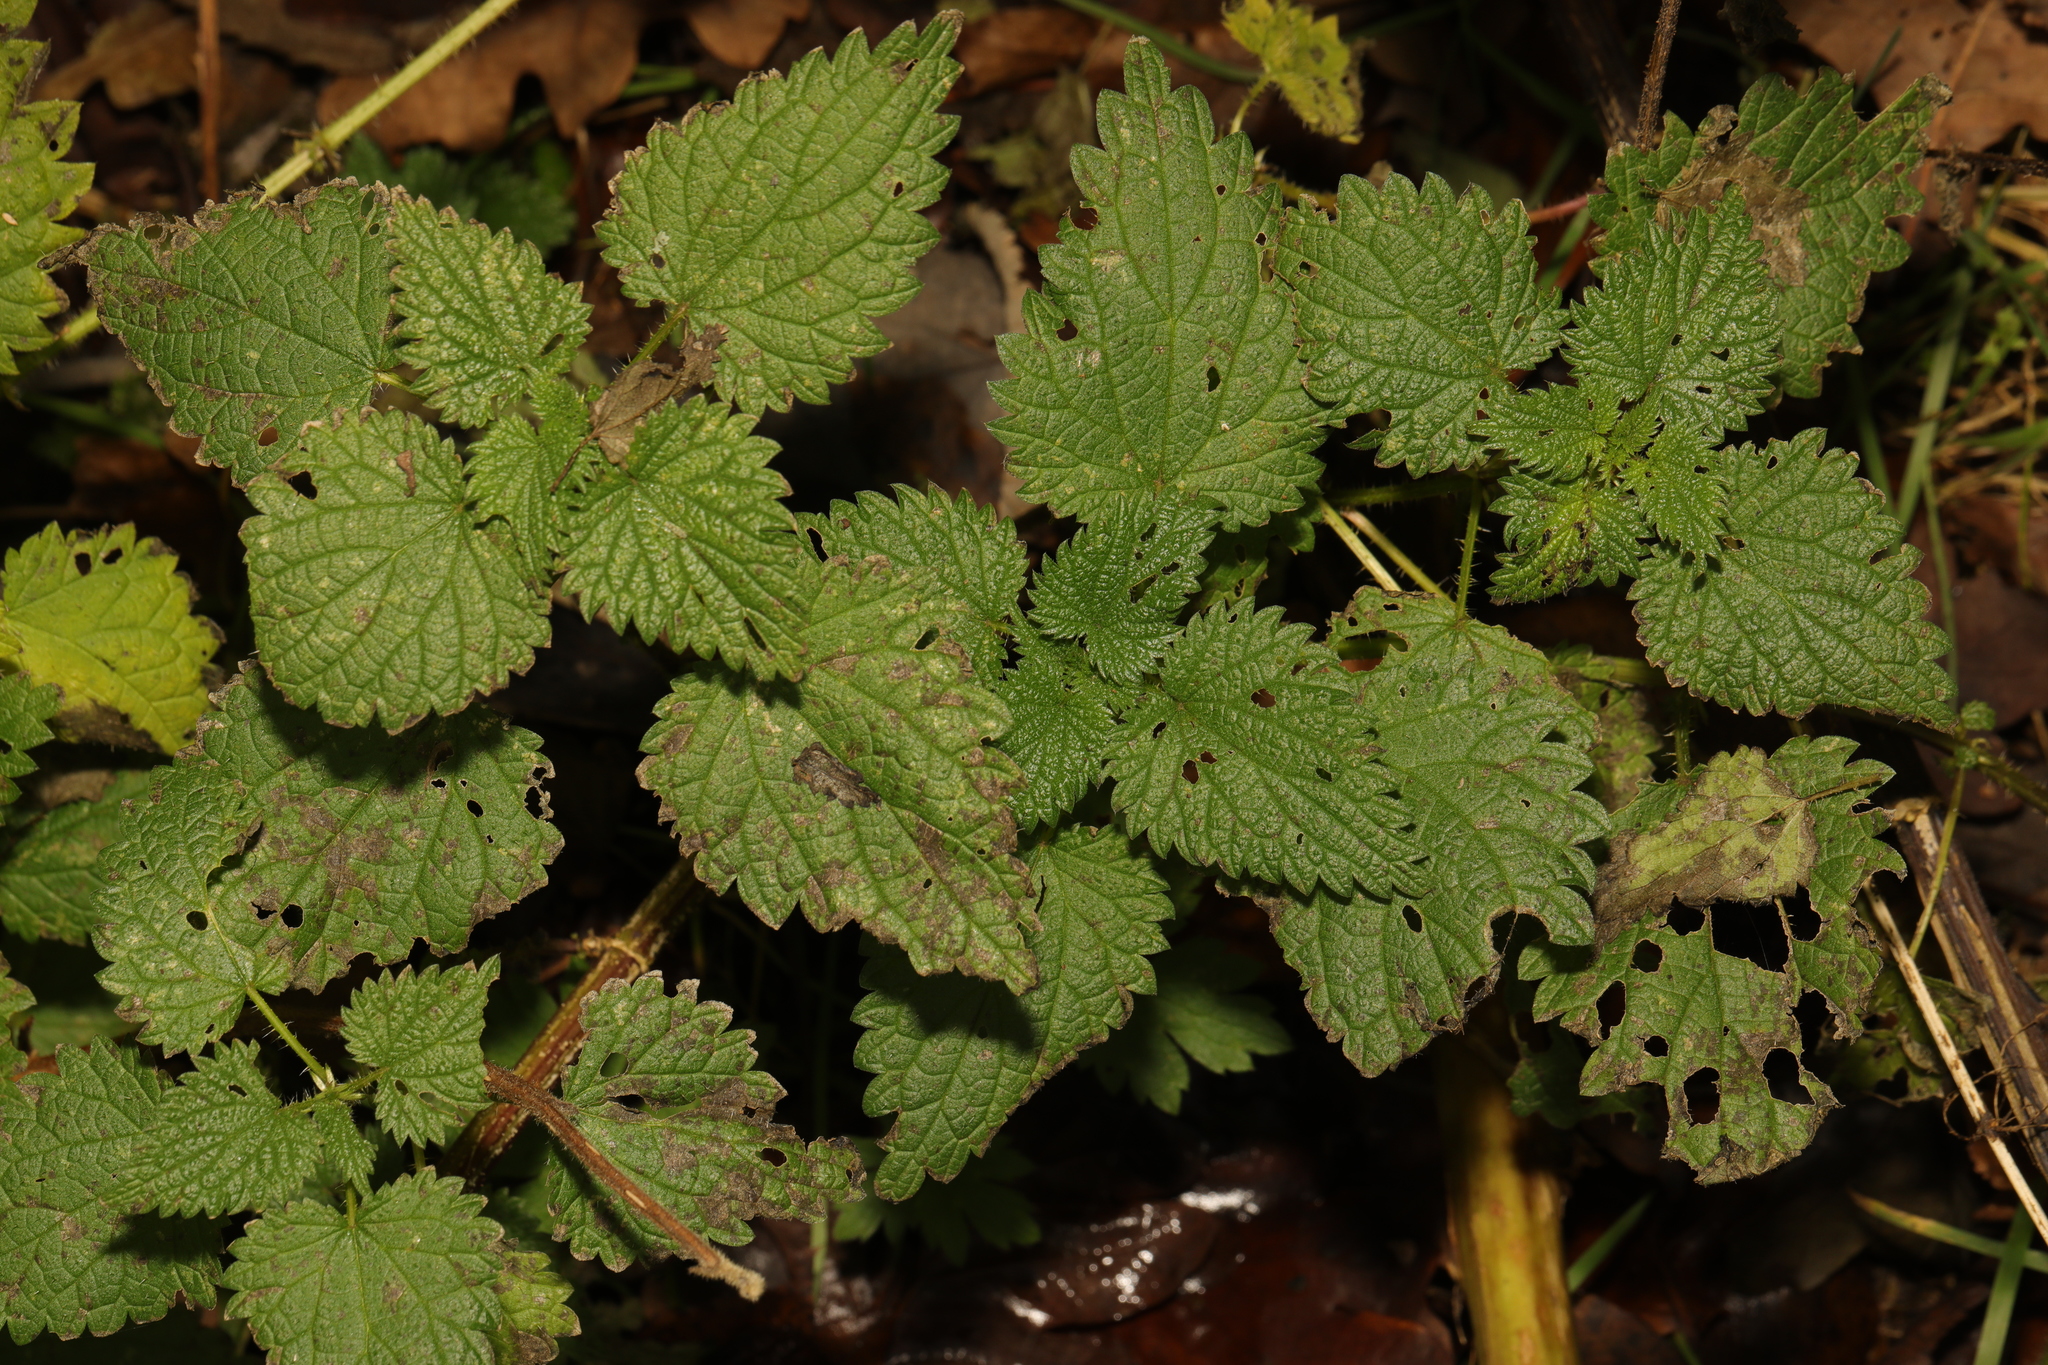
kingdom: Plantae
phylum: Tracheophyta
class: Magnoliopsida
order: Rosales
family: Urticaceae
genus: Urtica
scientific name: Urtica dioica
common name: Common nettle
